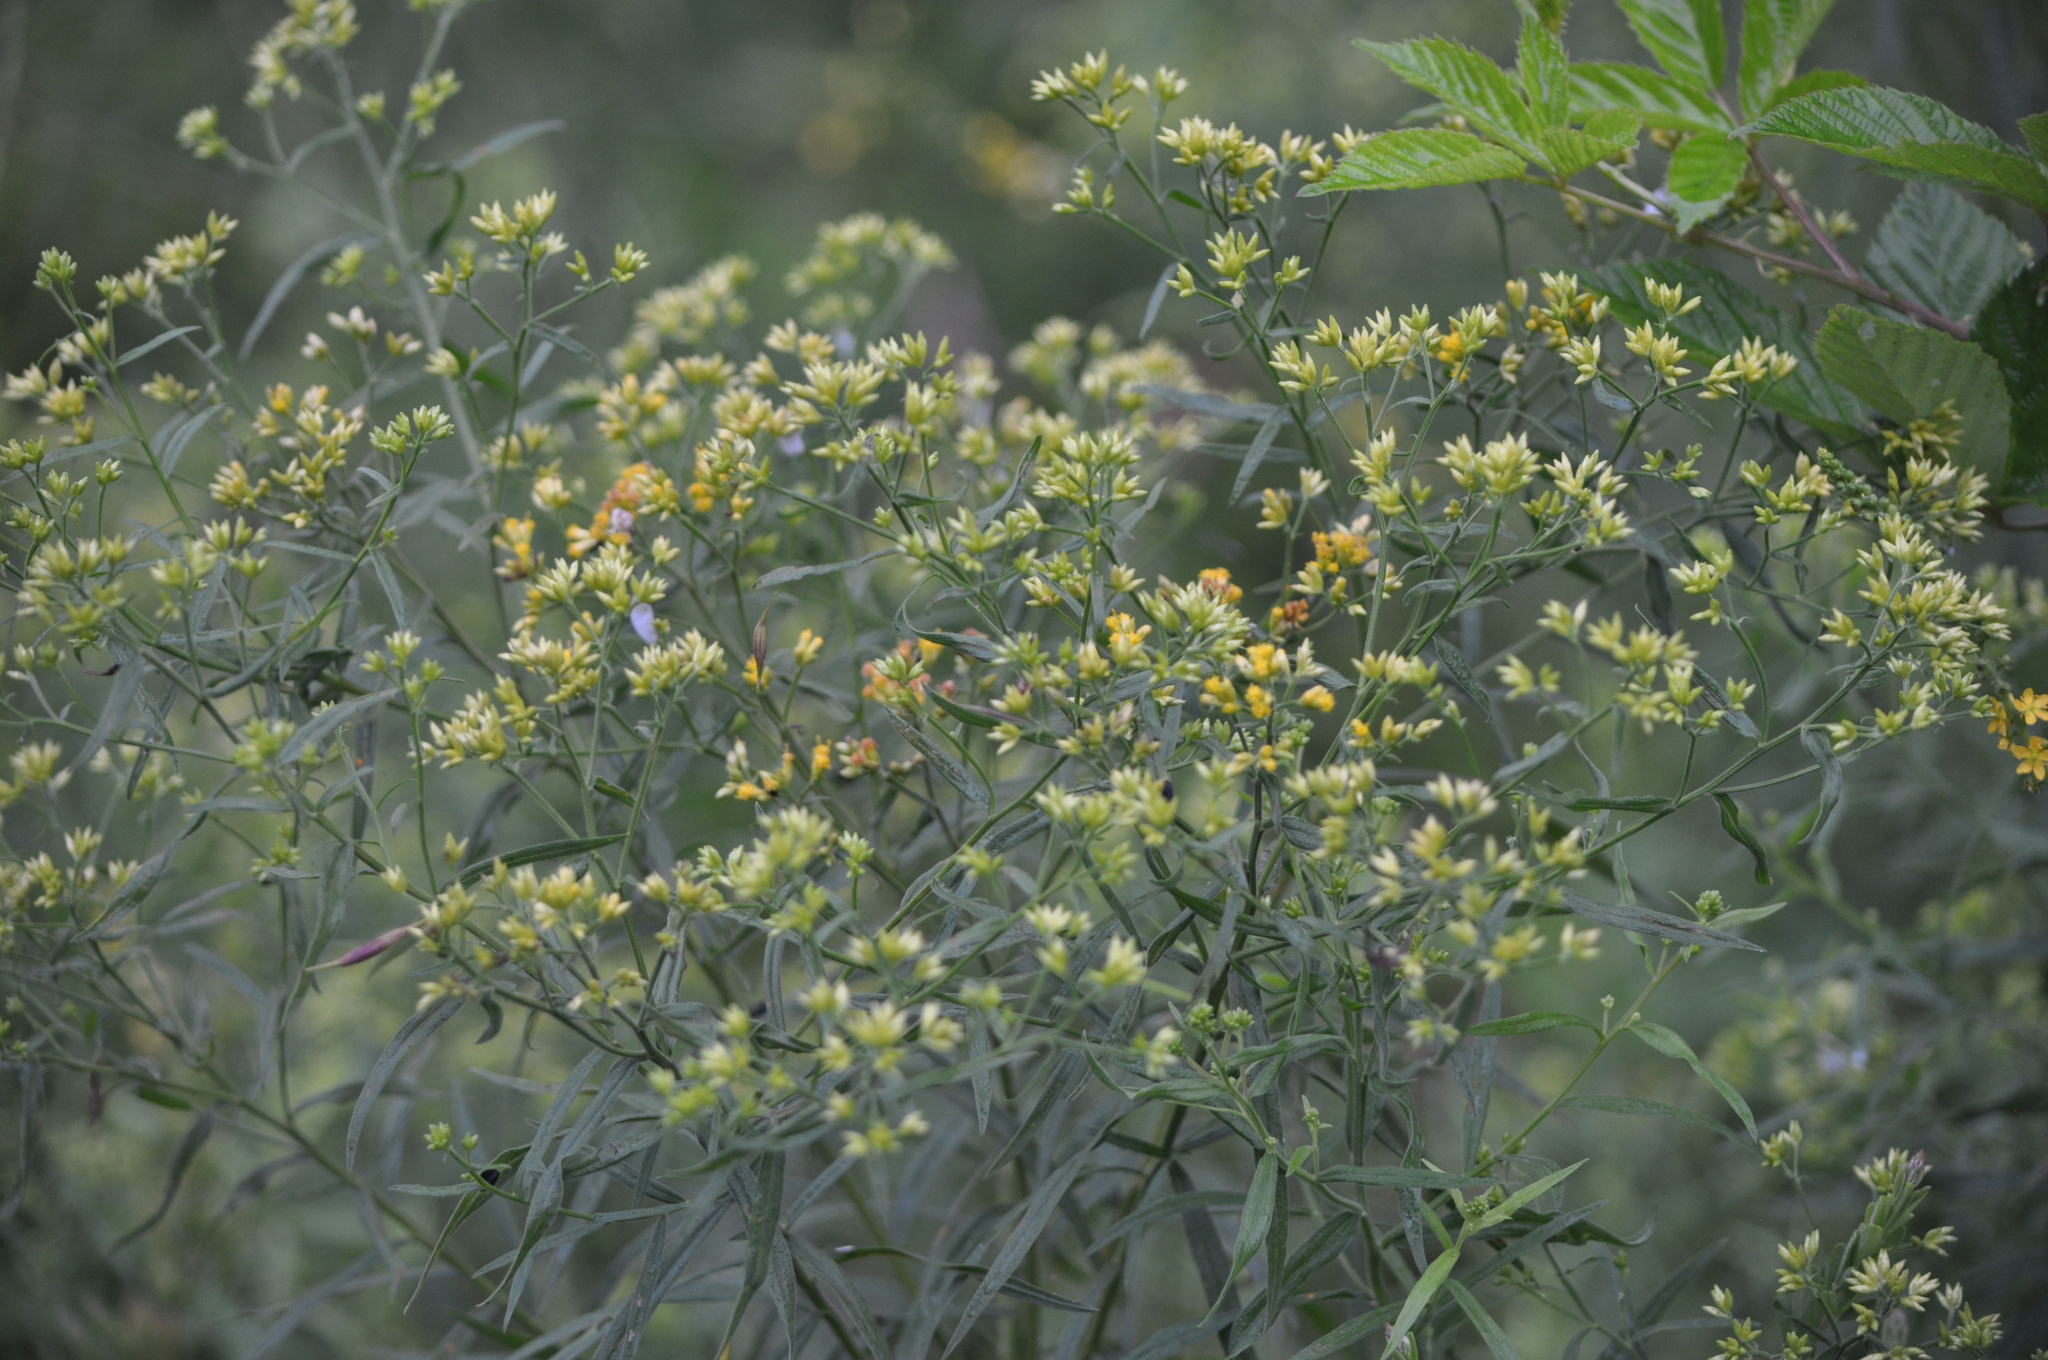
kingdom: Plantae
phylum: Tracheophyta
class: Magnoliopsida
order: Asterales
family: Asteraceae
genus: Euthamia
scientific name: Euthamia graminifolia
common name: Common goldentop
